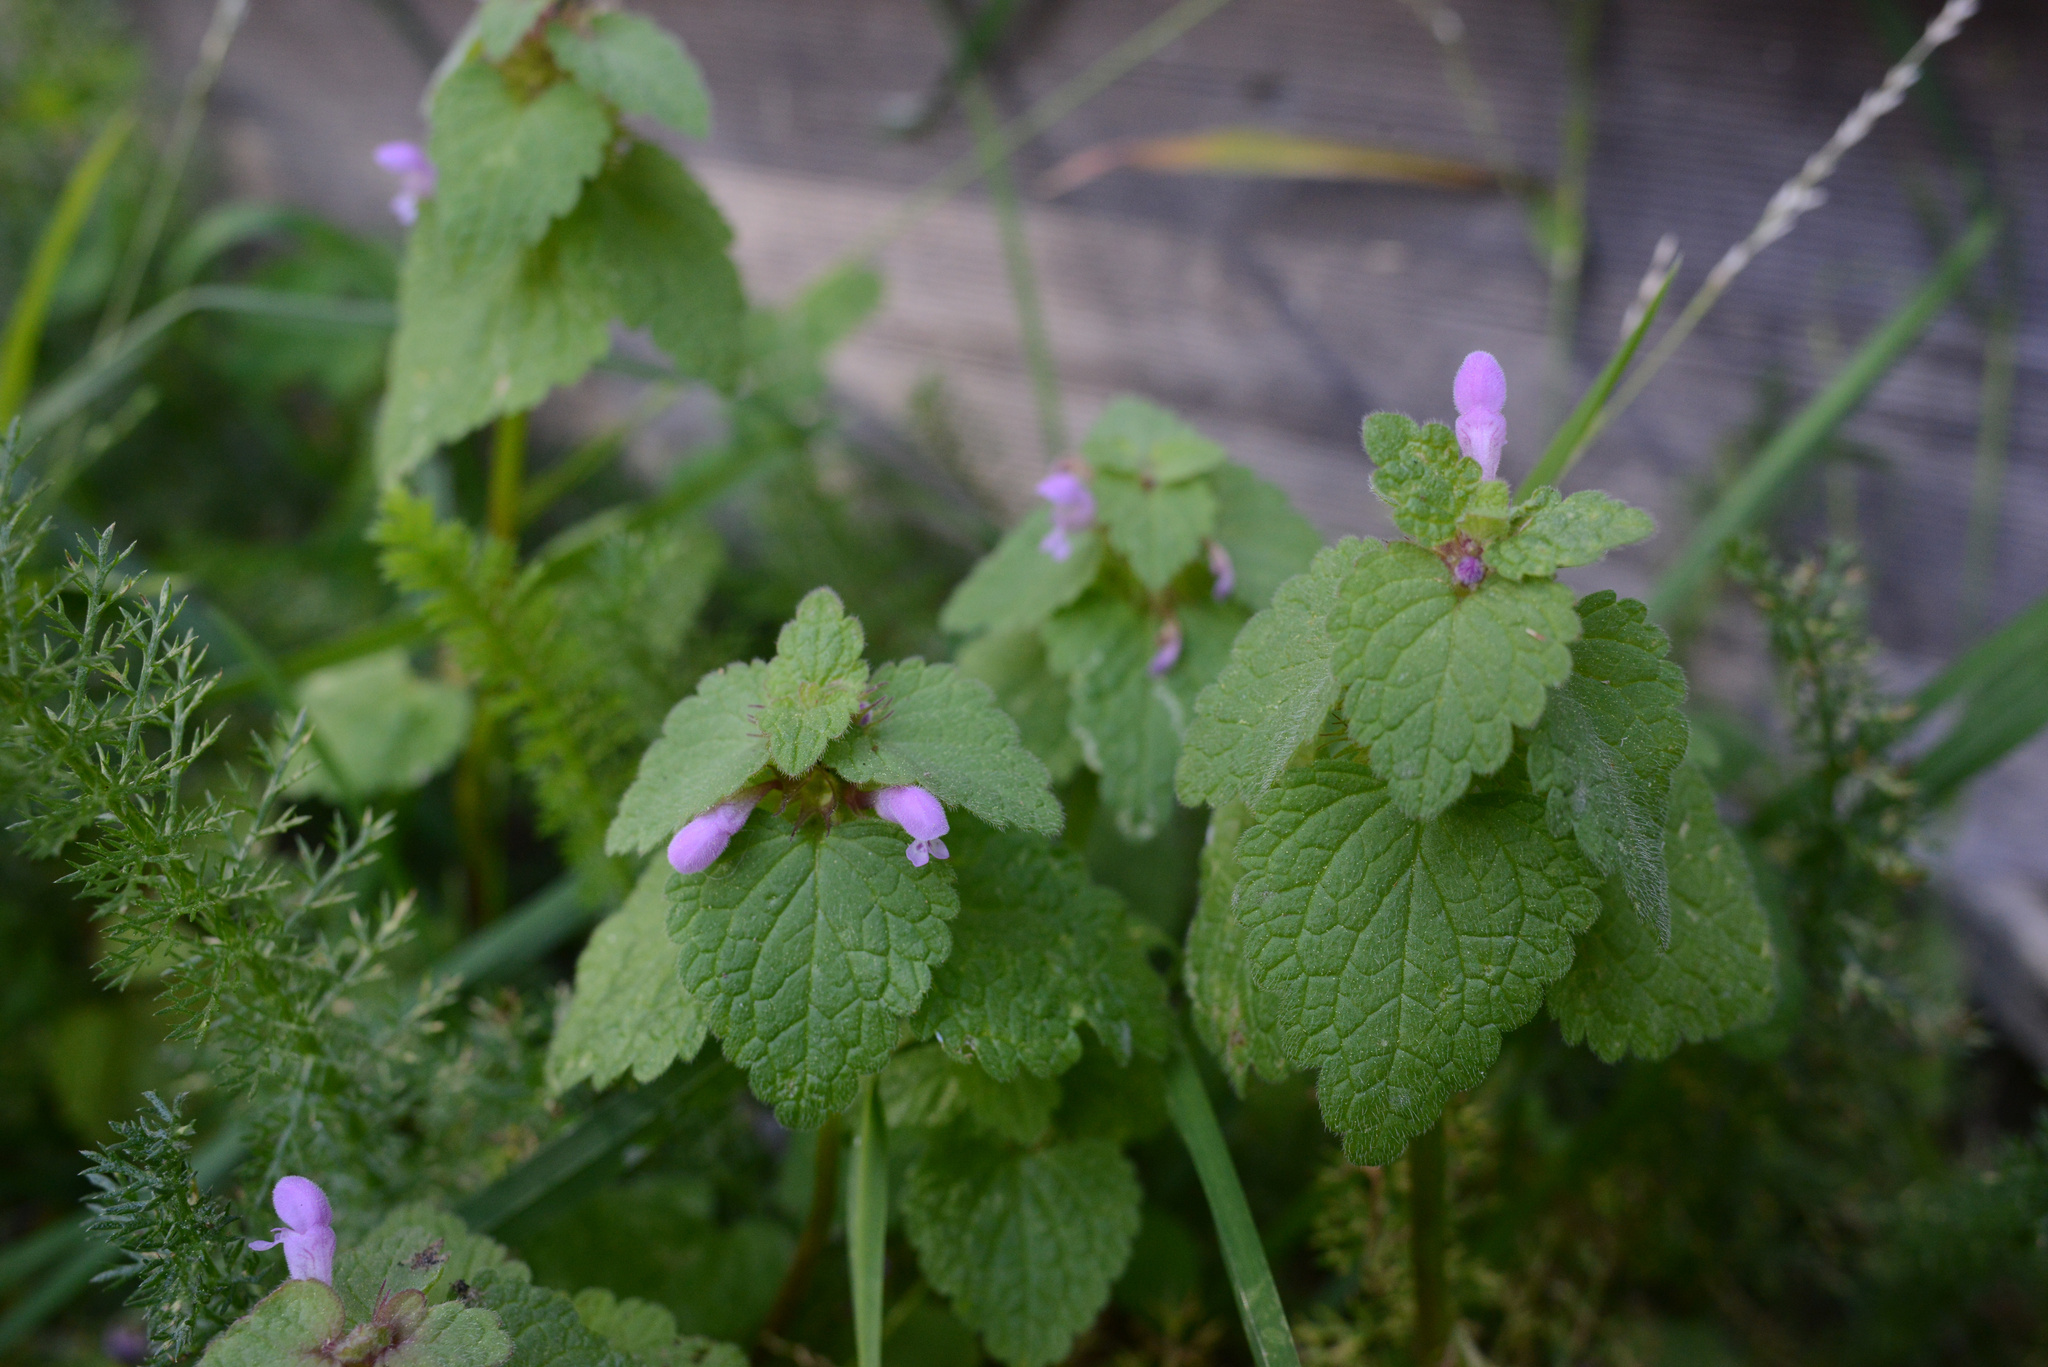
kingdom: Plantae
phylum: Tracheophyta
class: Magnoliopsida
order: Lamiales
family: Lamiaceae
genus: Lamium
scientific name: Lamium purpureum
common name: Red dead-nettle
